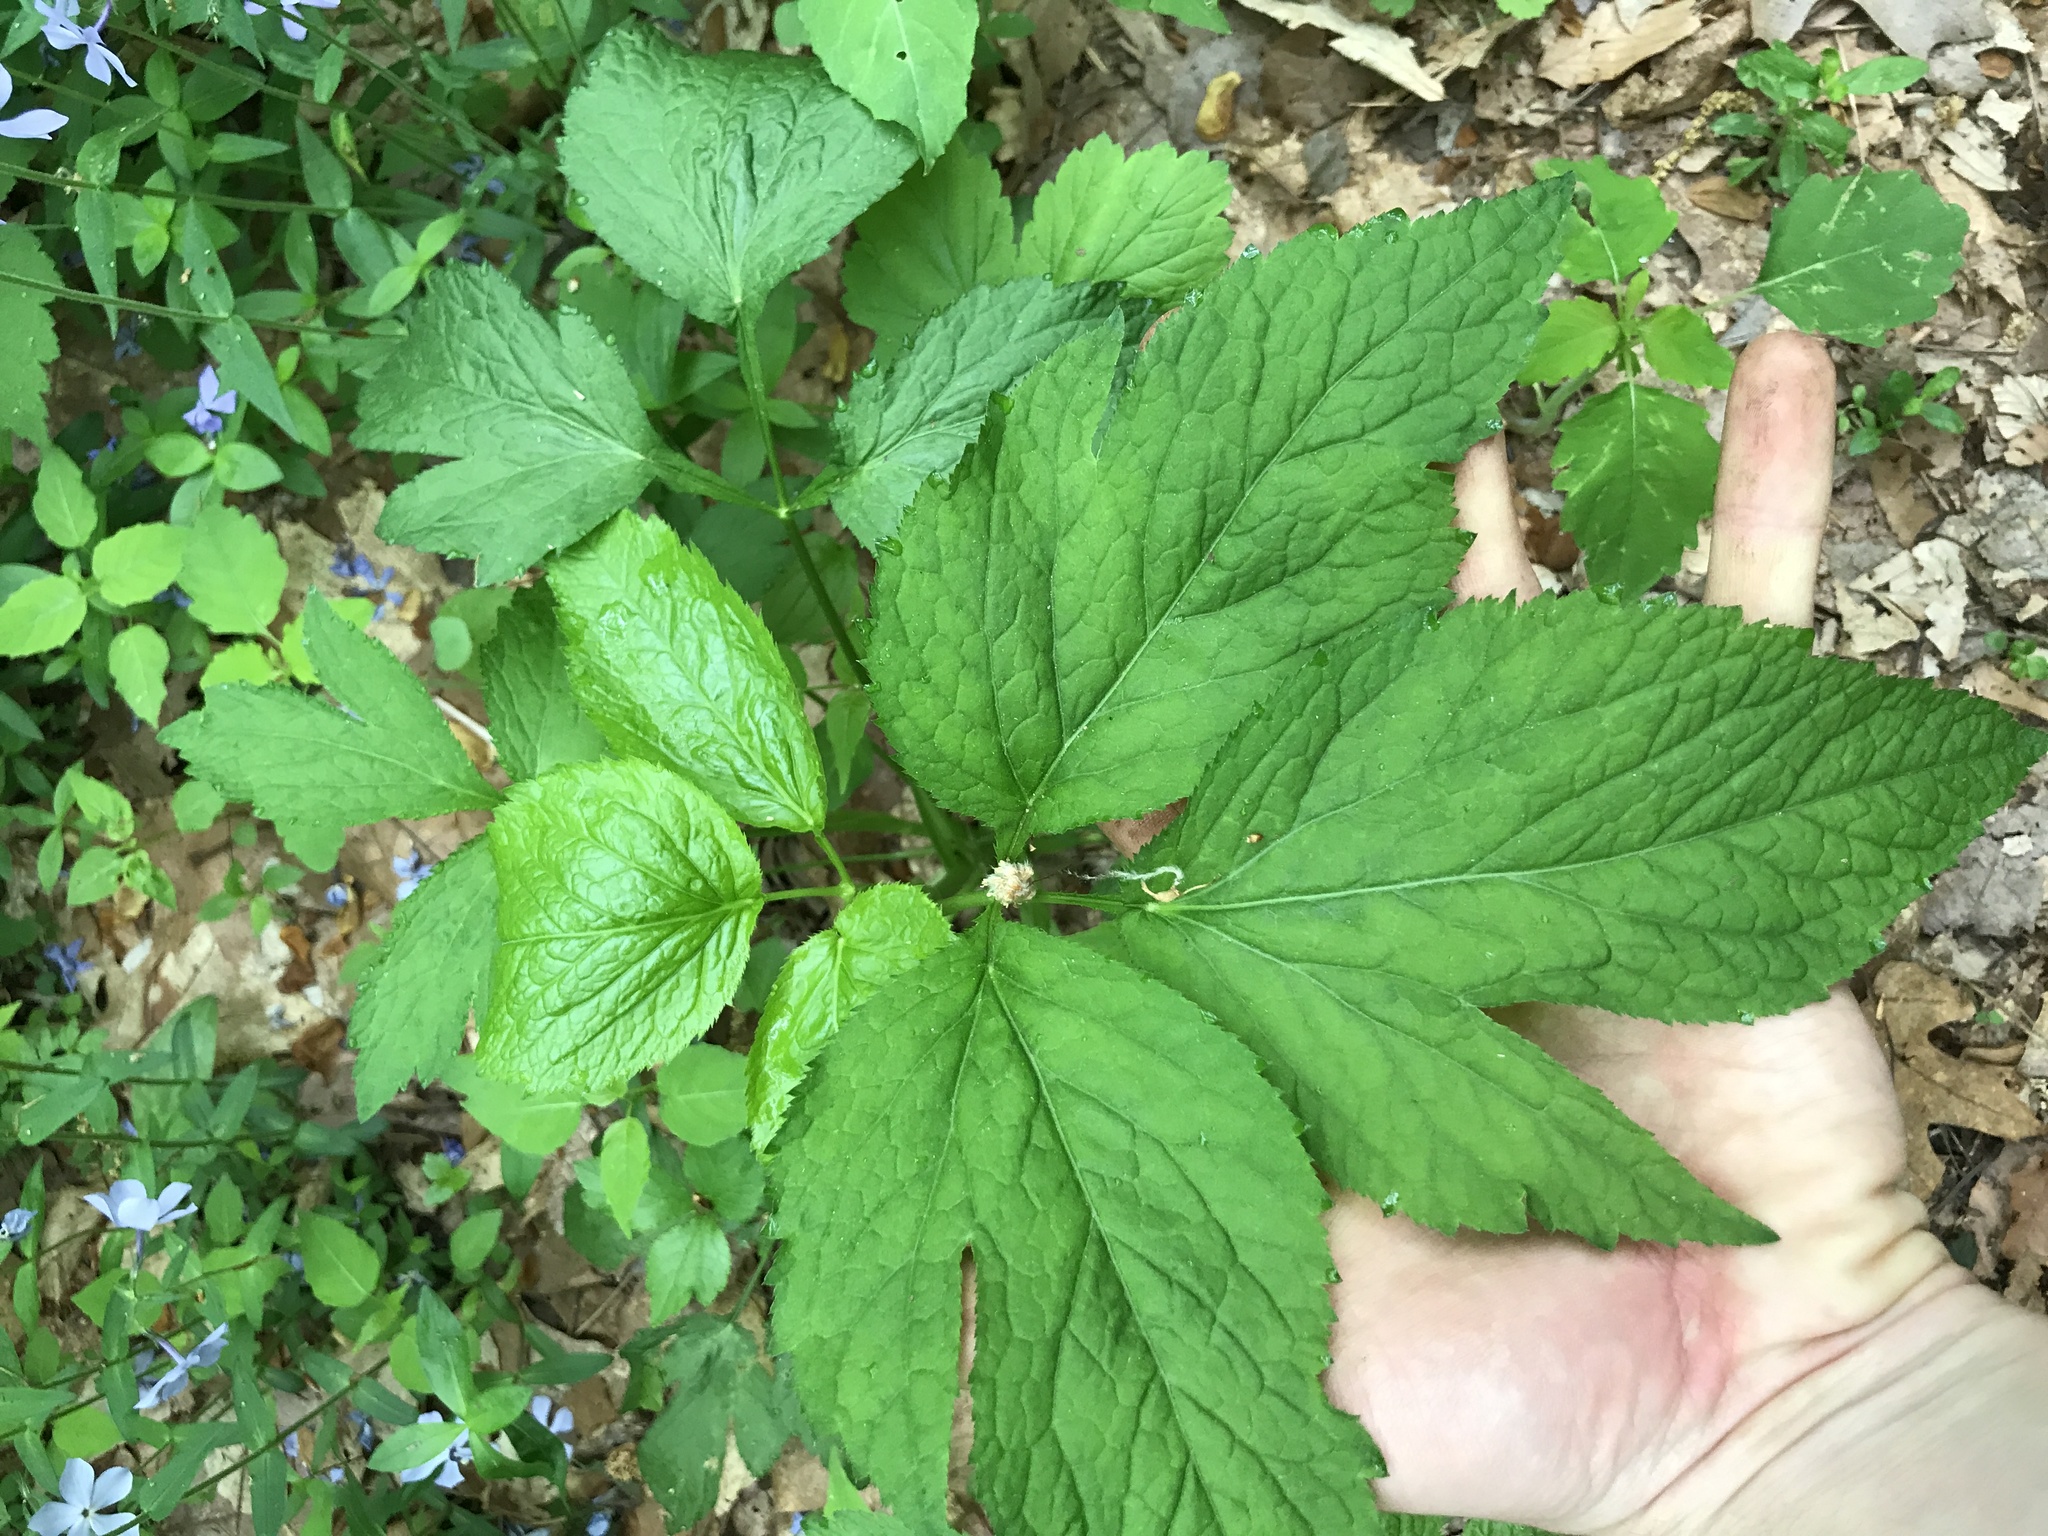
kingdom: Plantae
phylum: Tracheophyta
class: Magnoliopsida
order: Apiales
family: Apiaceae
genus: Cryptotaenia
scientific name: Cryptotaenia canadensis
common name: Honewort
